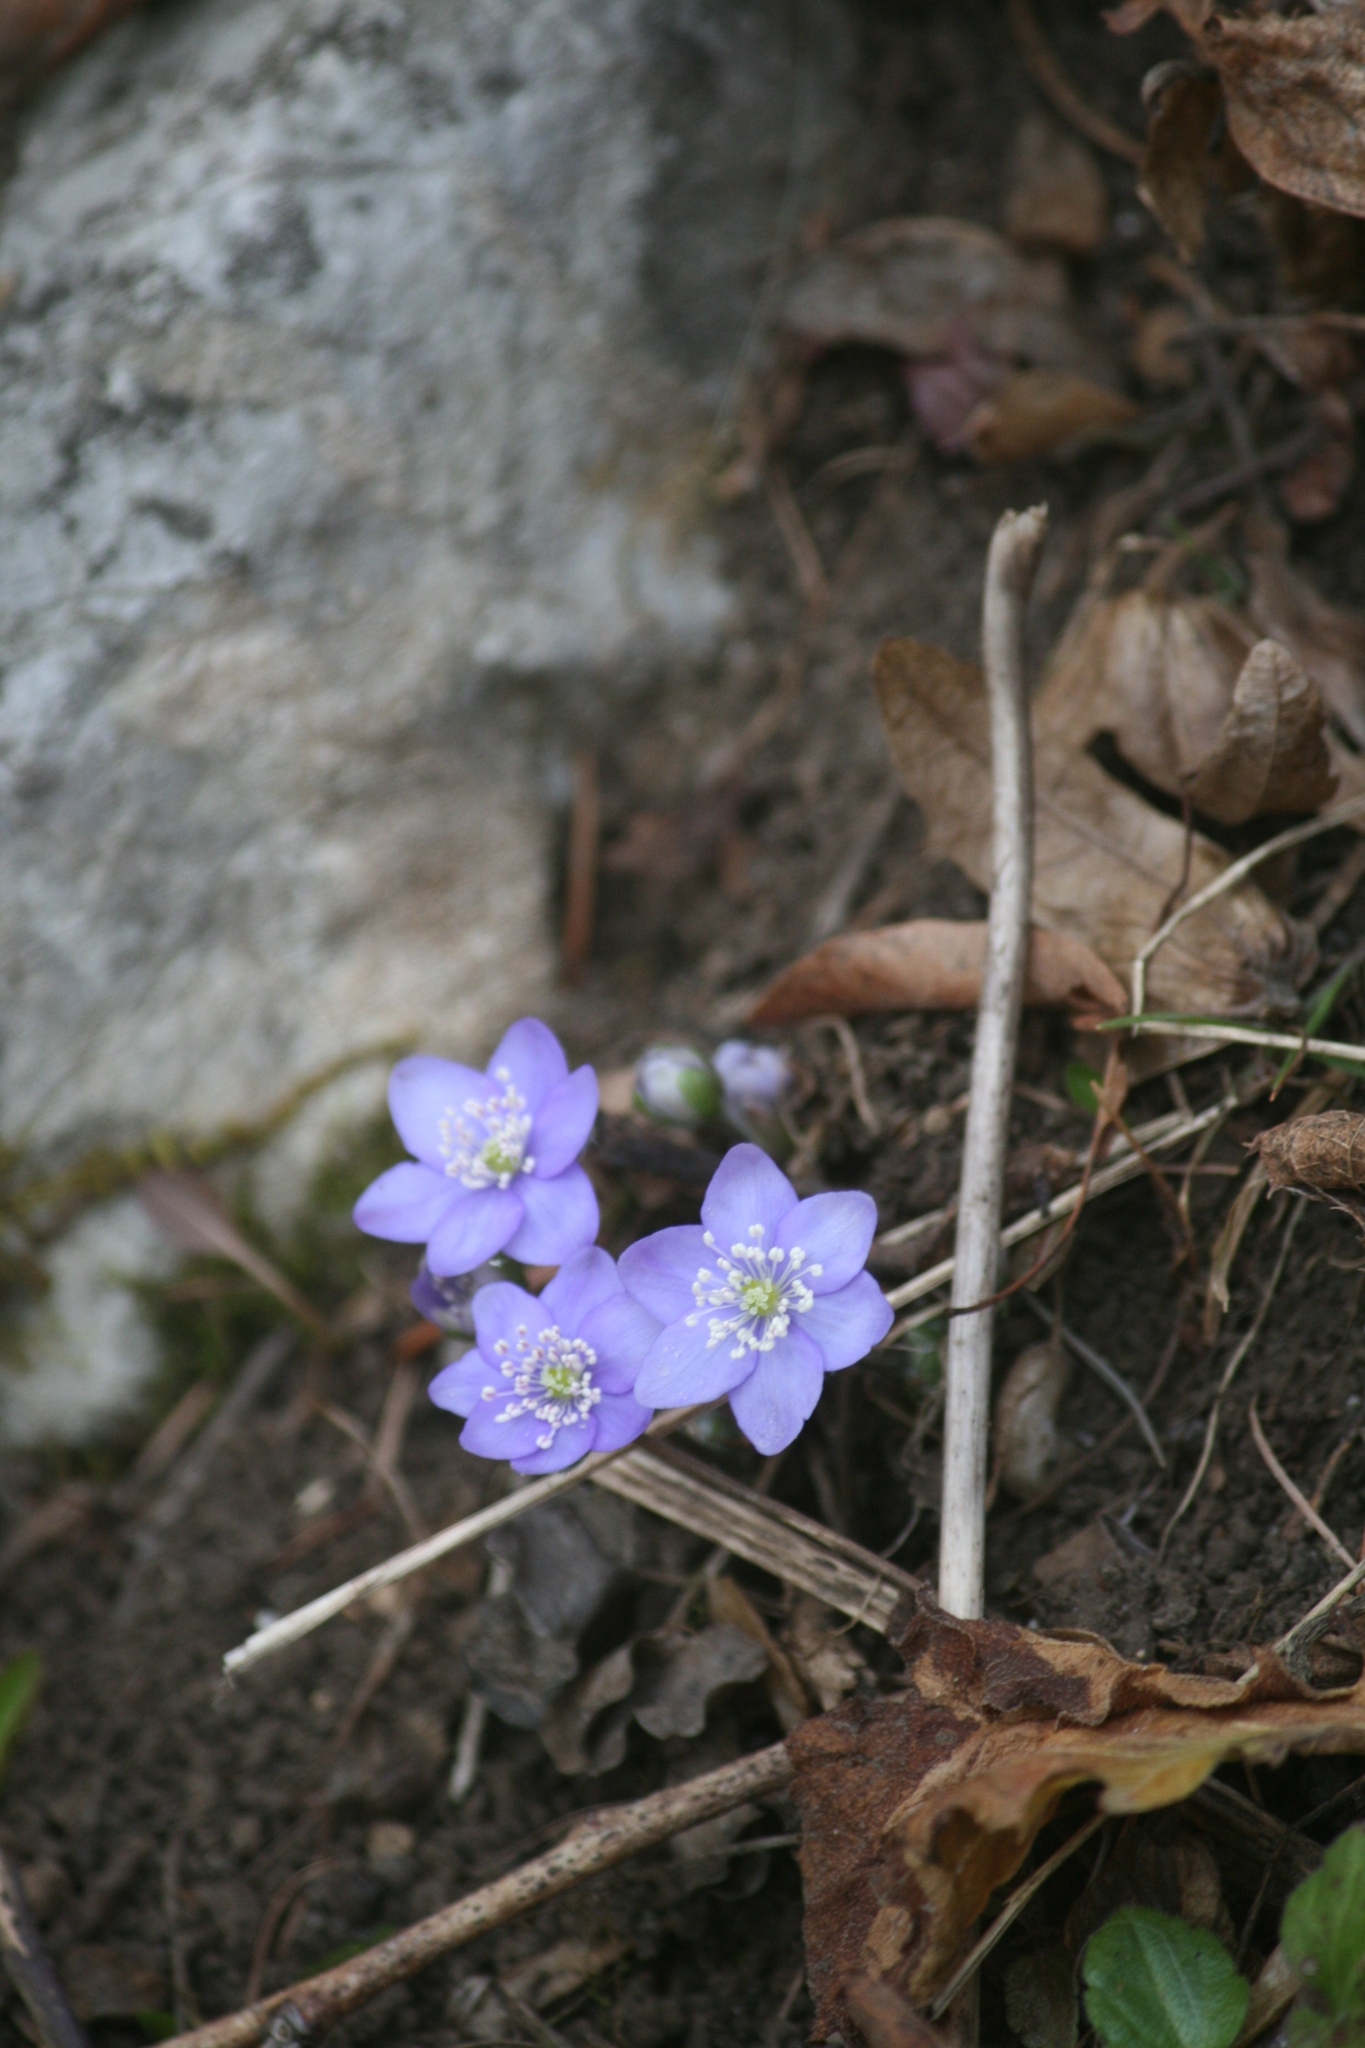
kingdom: Plantae
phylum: Tracheophyta
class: Magnoliopsida
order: Ranunculales
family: Ranunculaceae
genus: Hepatica
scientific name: Hepatica nobilis
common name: Liverleaf
